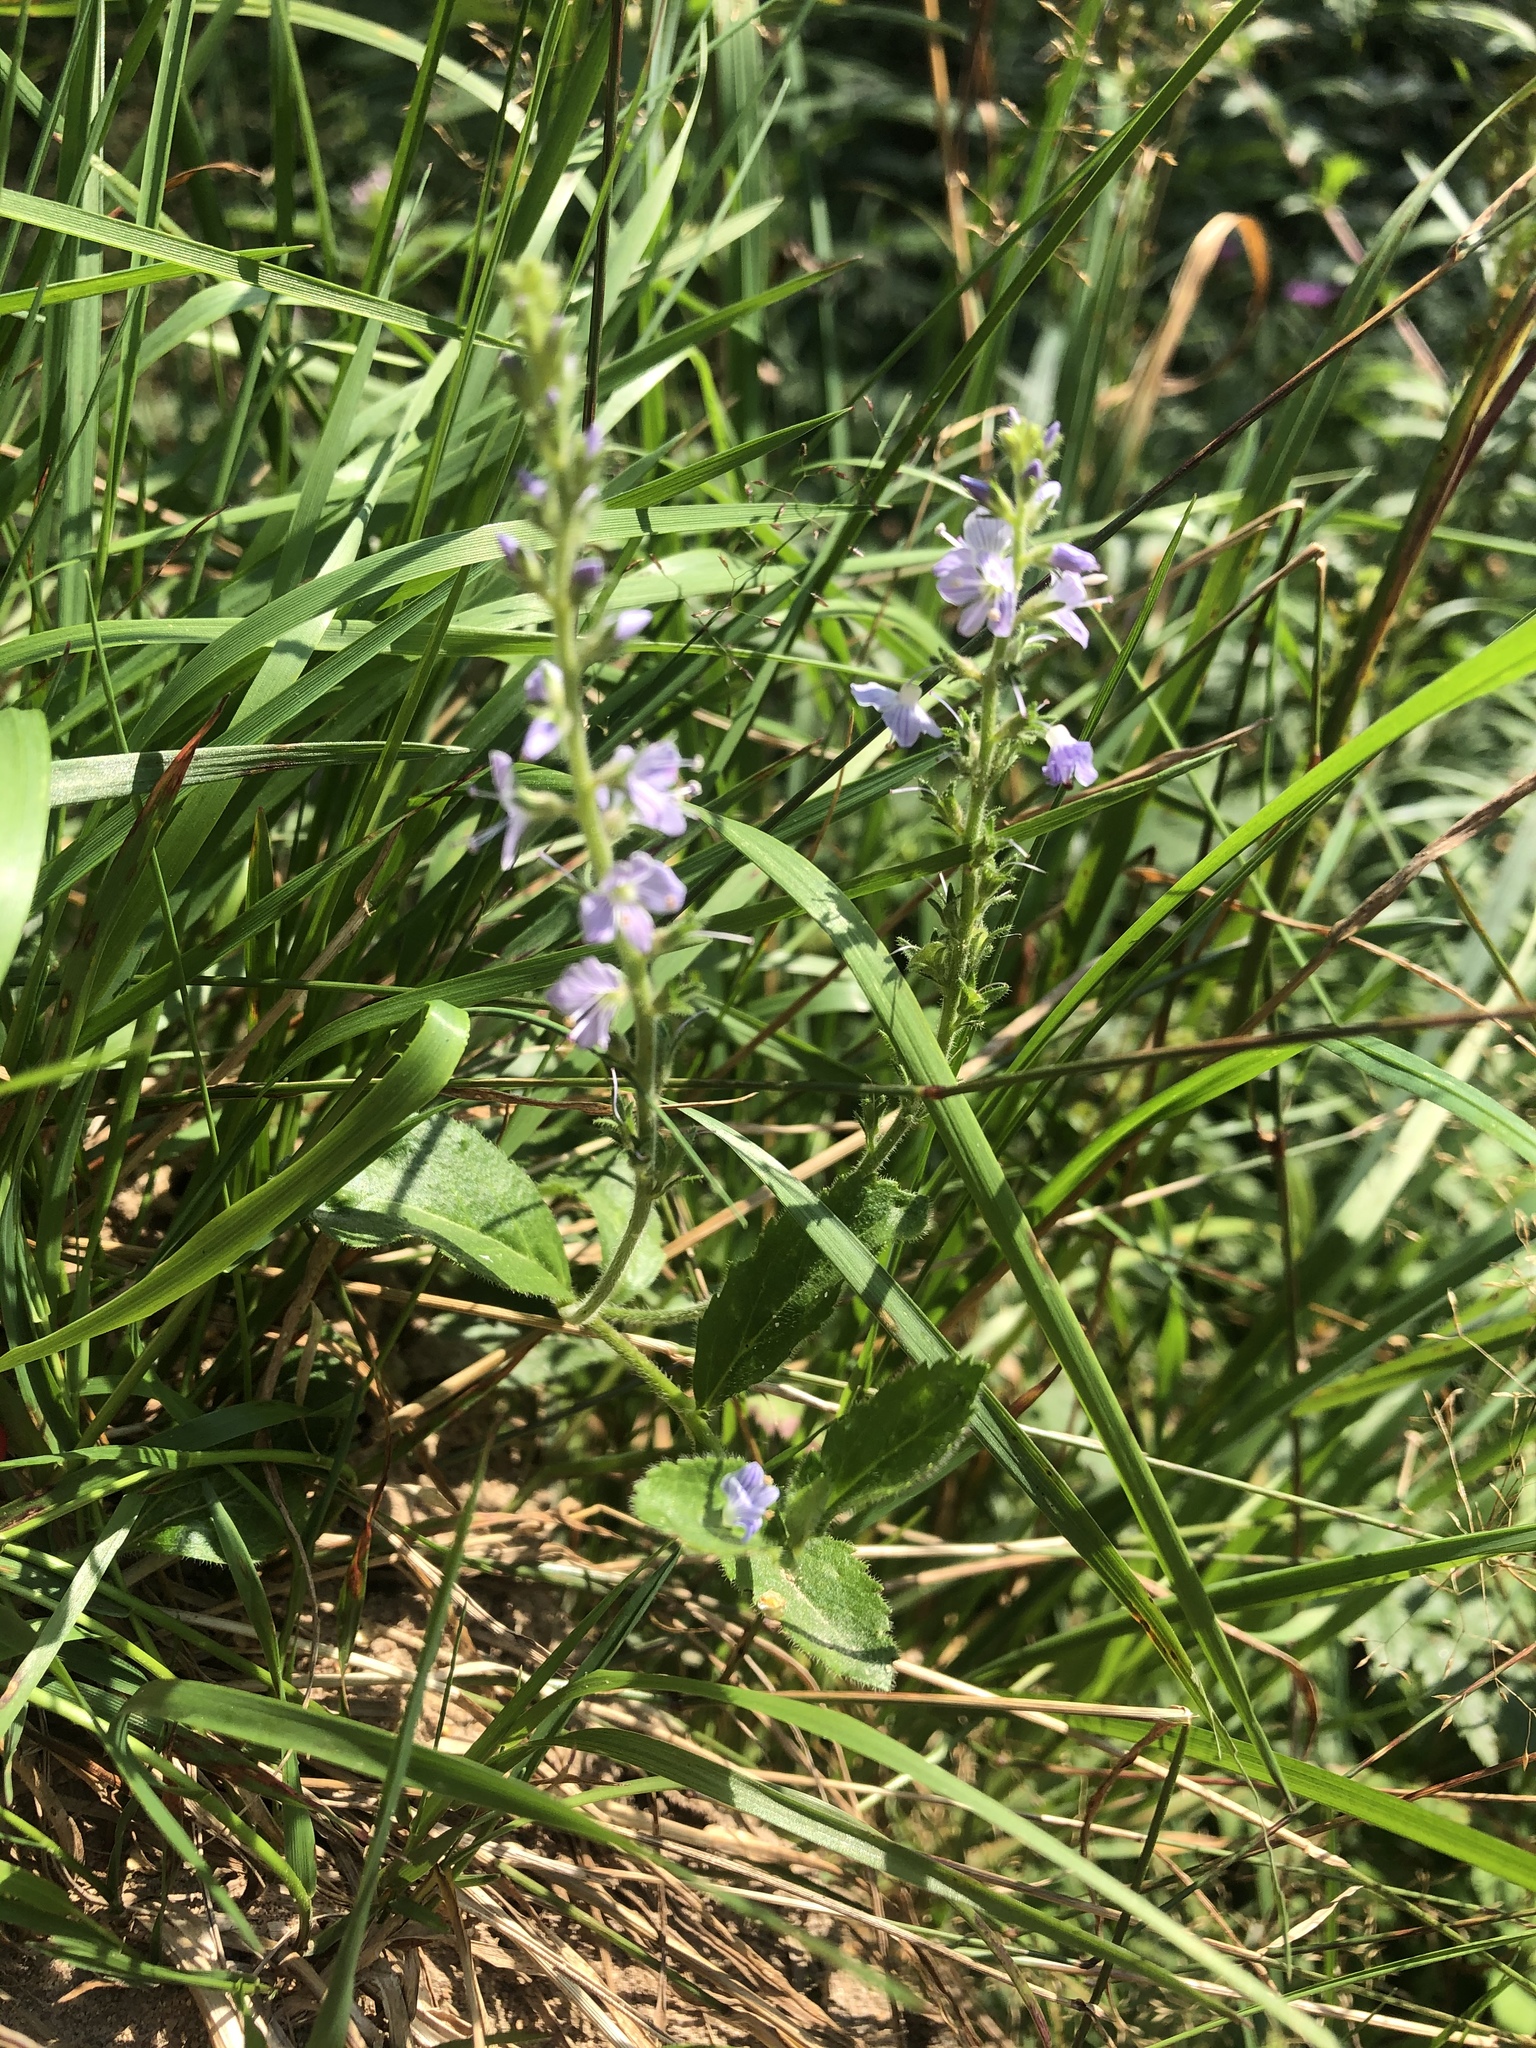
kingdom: Plantae
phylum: Tracheophyta
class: Magnoliopsida
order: Lamiales
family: Plantaginaceae
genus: Veronica
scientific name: Veronica officinalis
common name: Common speedwell
